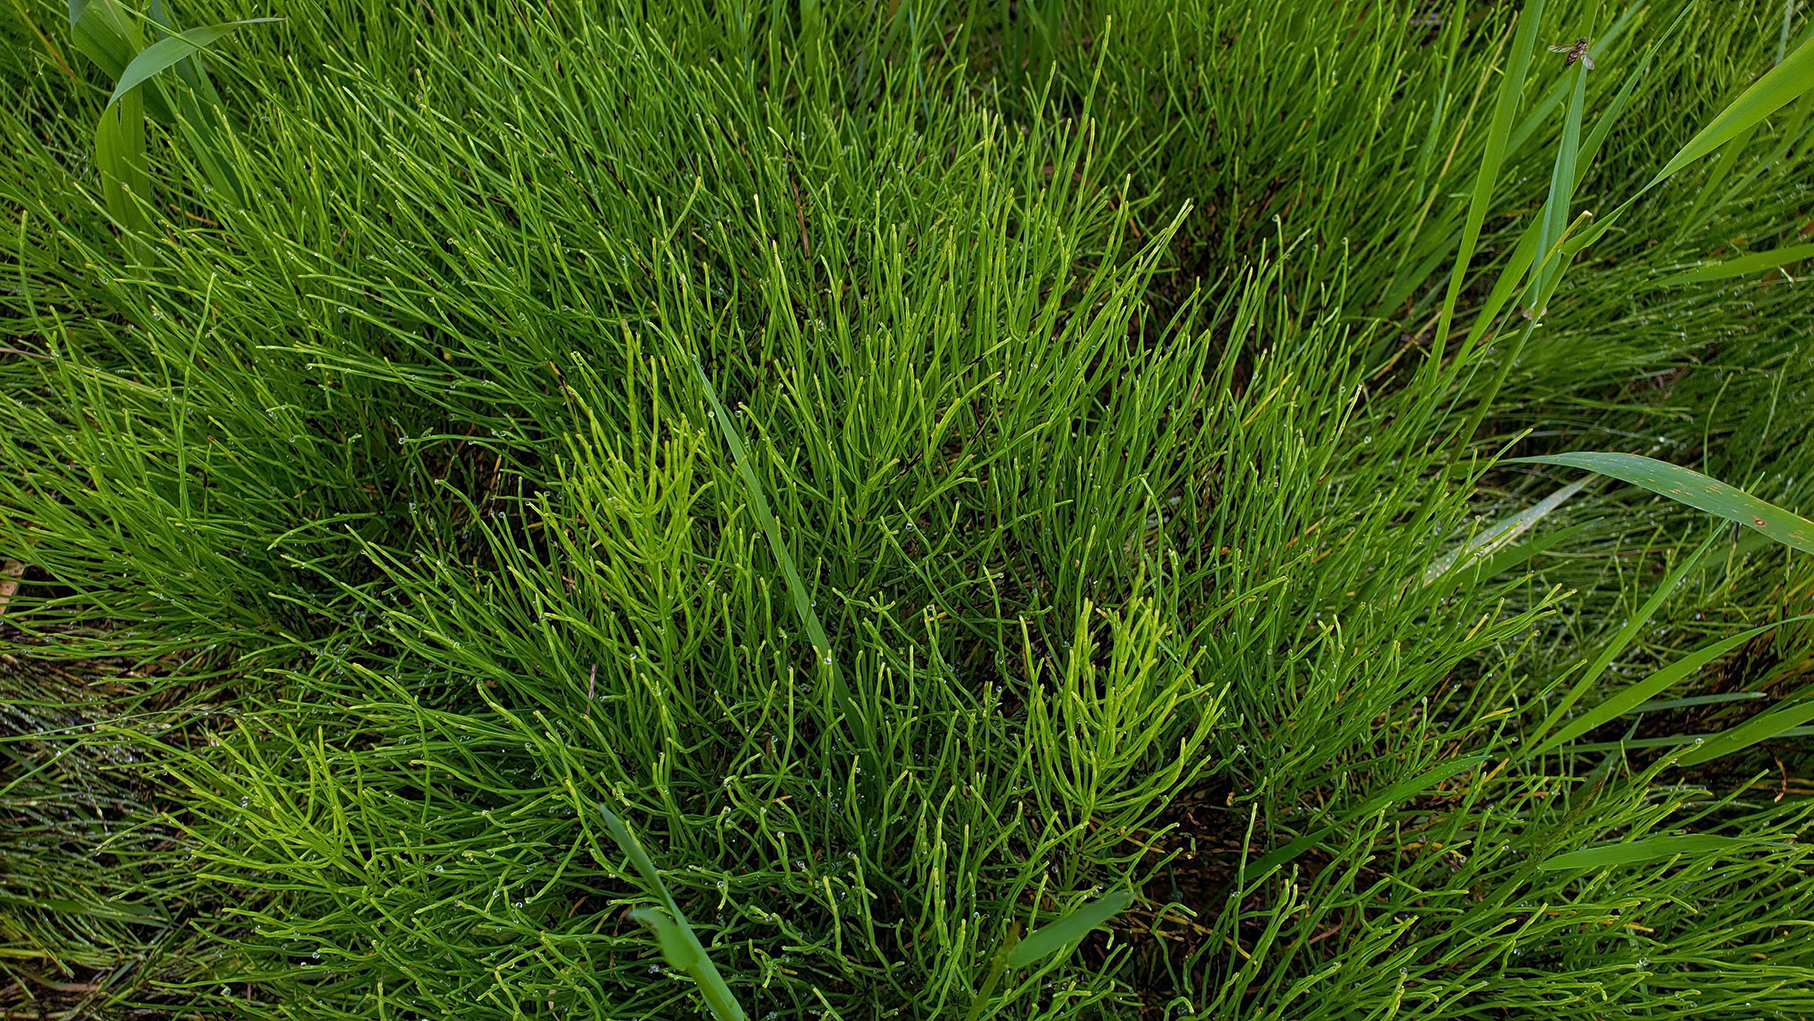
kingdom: Plantae
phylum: Tracheophyta
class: Polypodiopsida
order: Equisetales
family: Equisetaceae
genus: Equisetum
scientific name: Equisetum arvense
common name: Field horsetail
